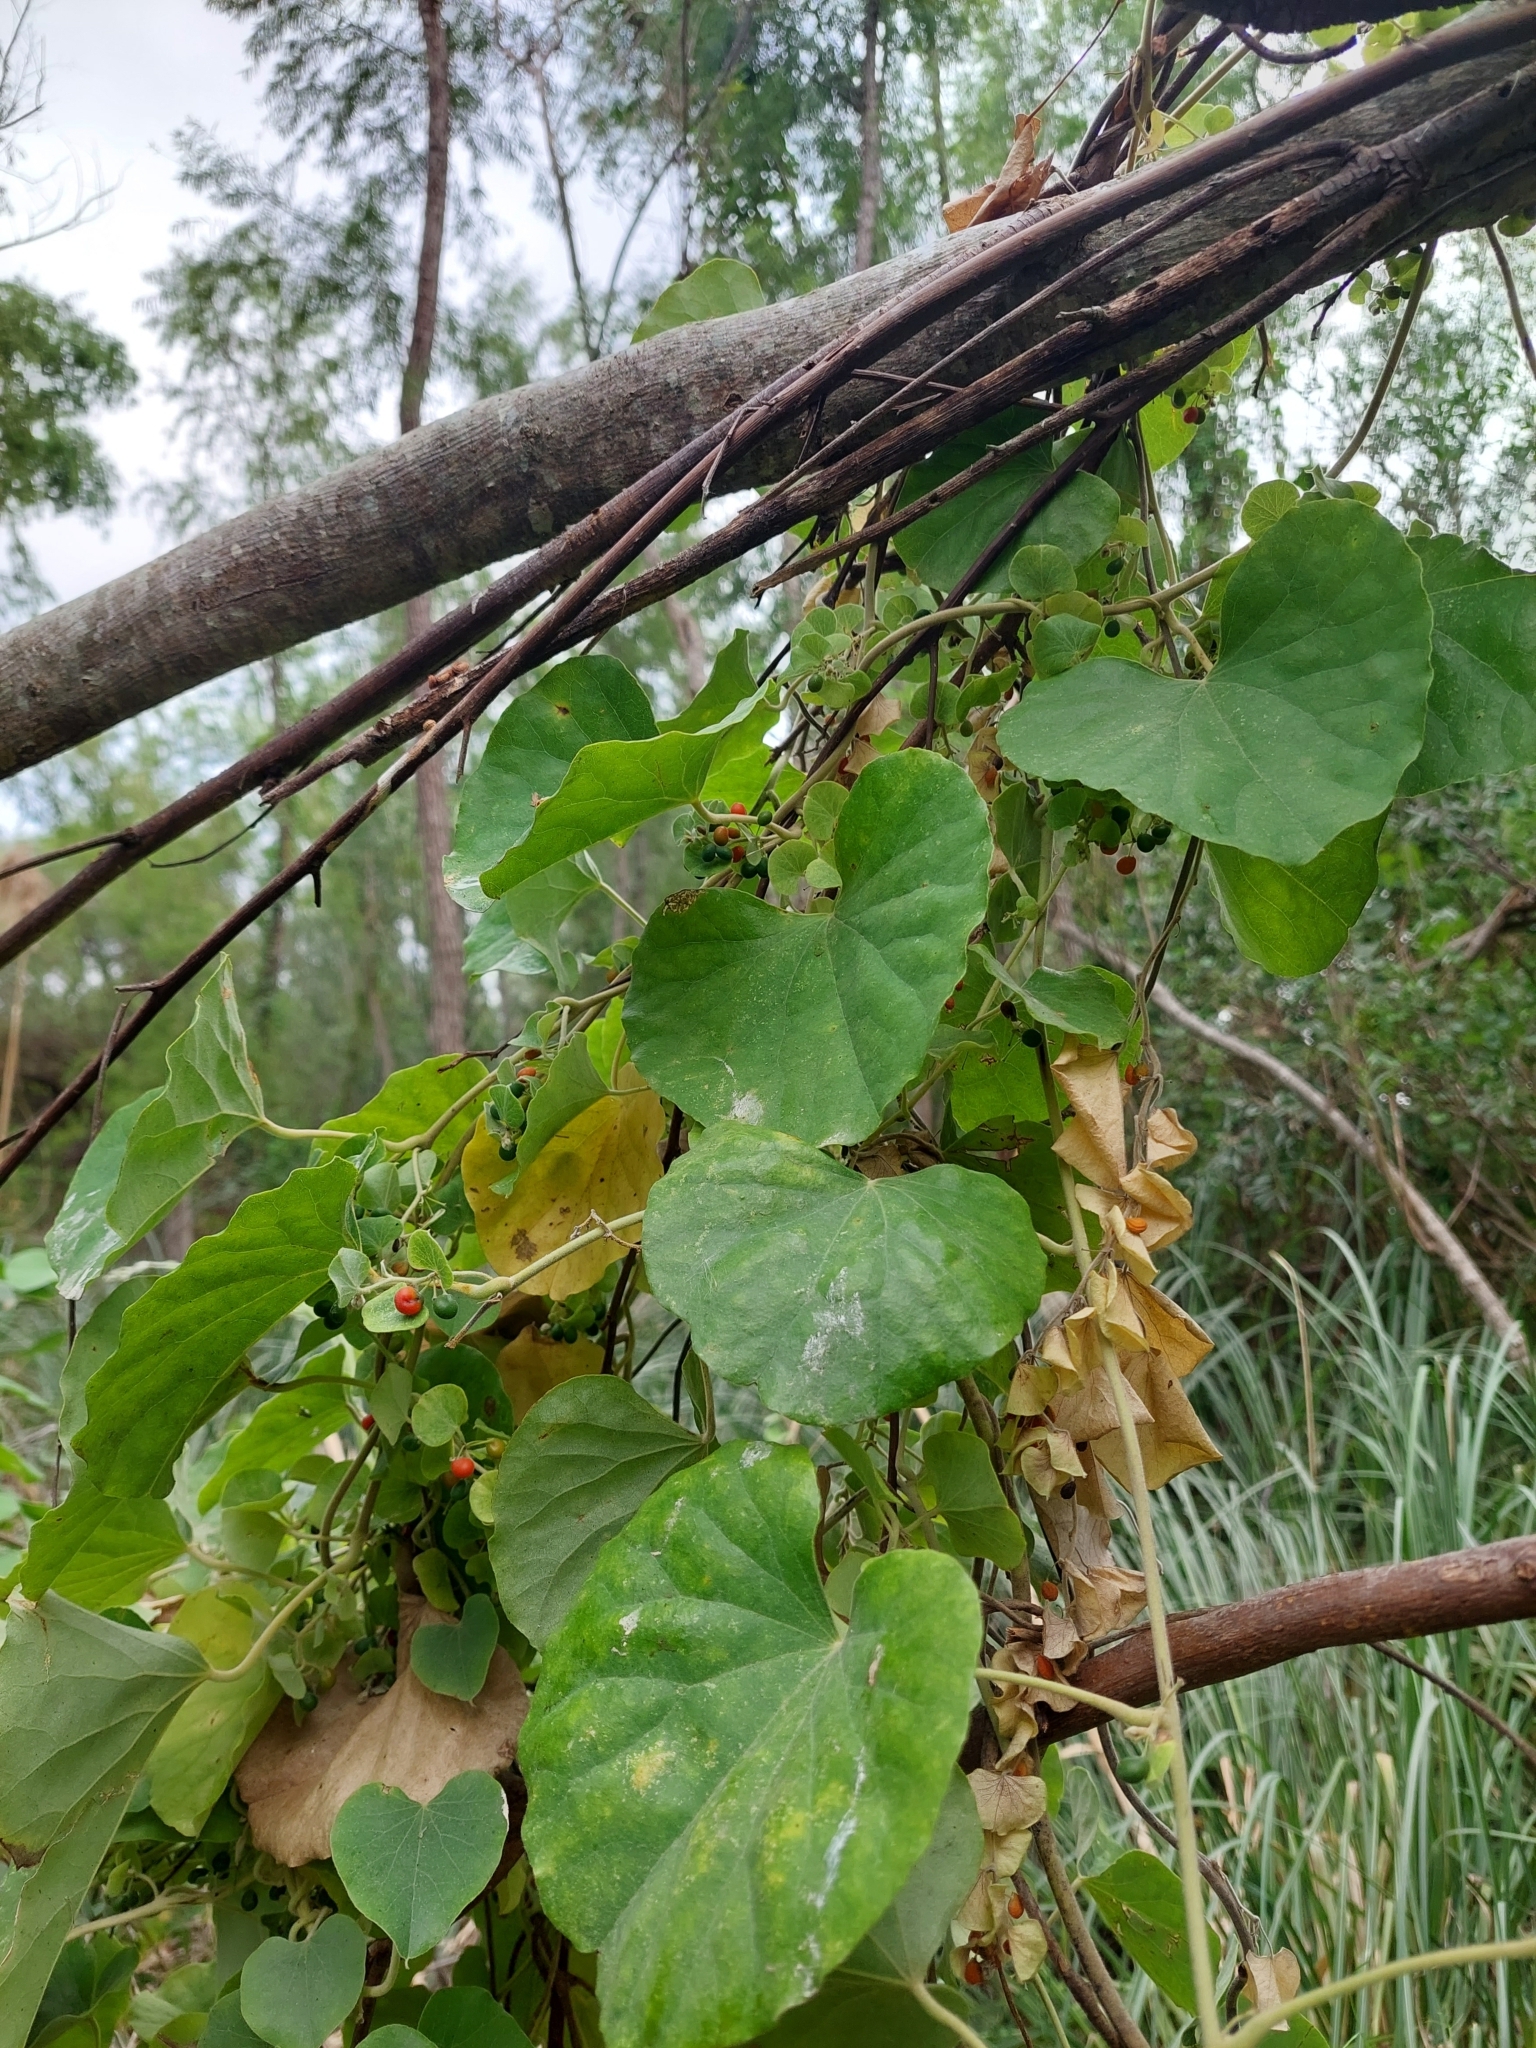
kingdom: Plantae
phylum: Tracheophyta
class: Magnoliopsida
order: Ranunculales
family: Menispermaceae
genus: Cissampelos
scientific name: Cissampelos pareira
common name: Velvetleaf
